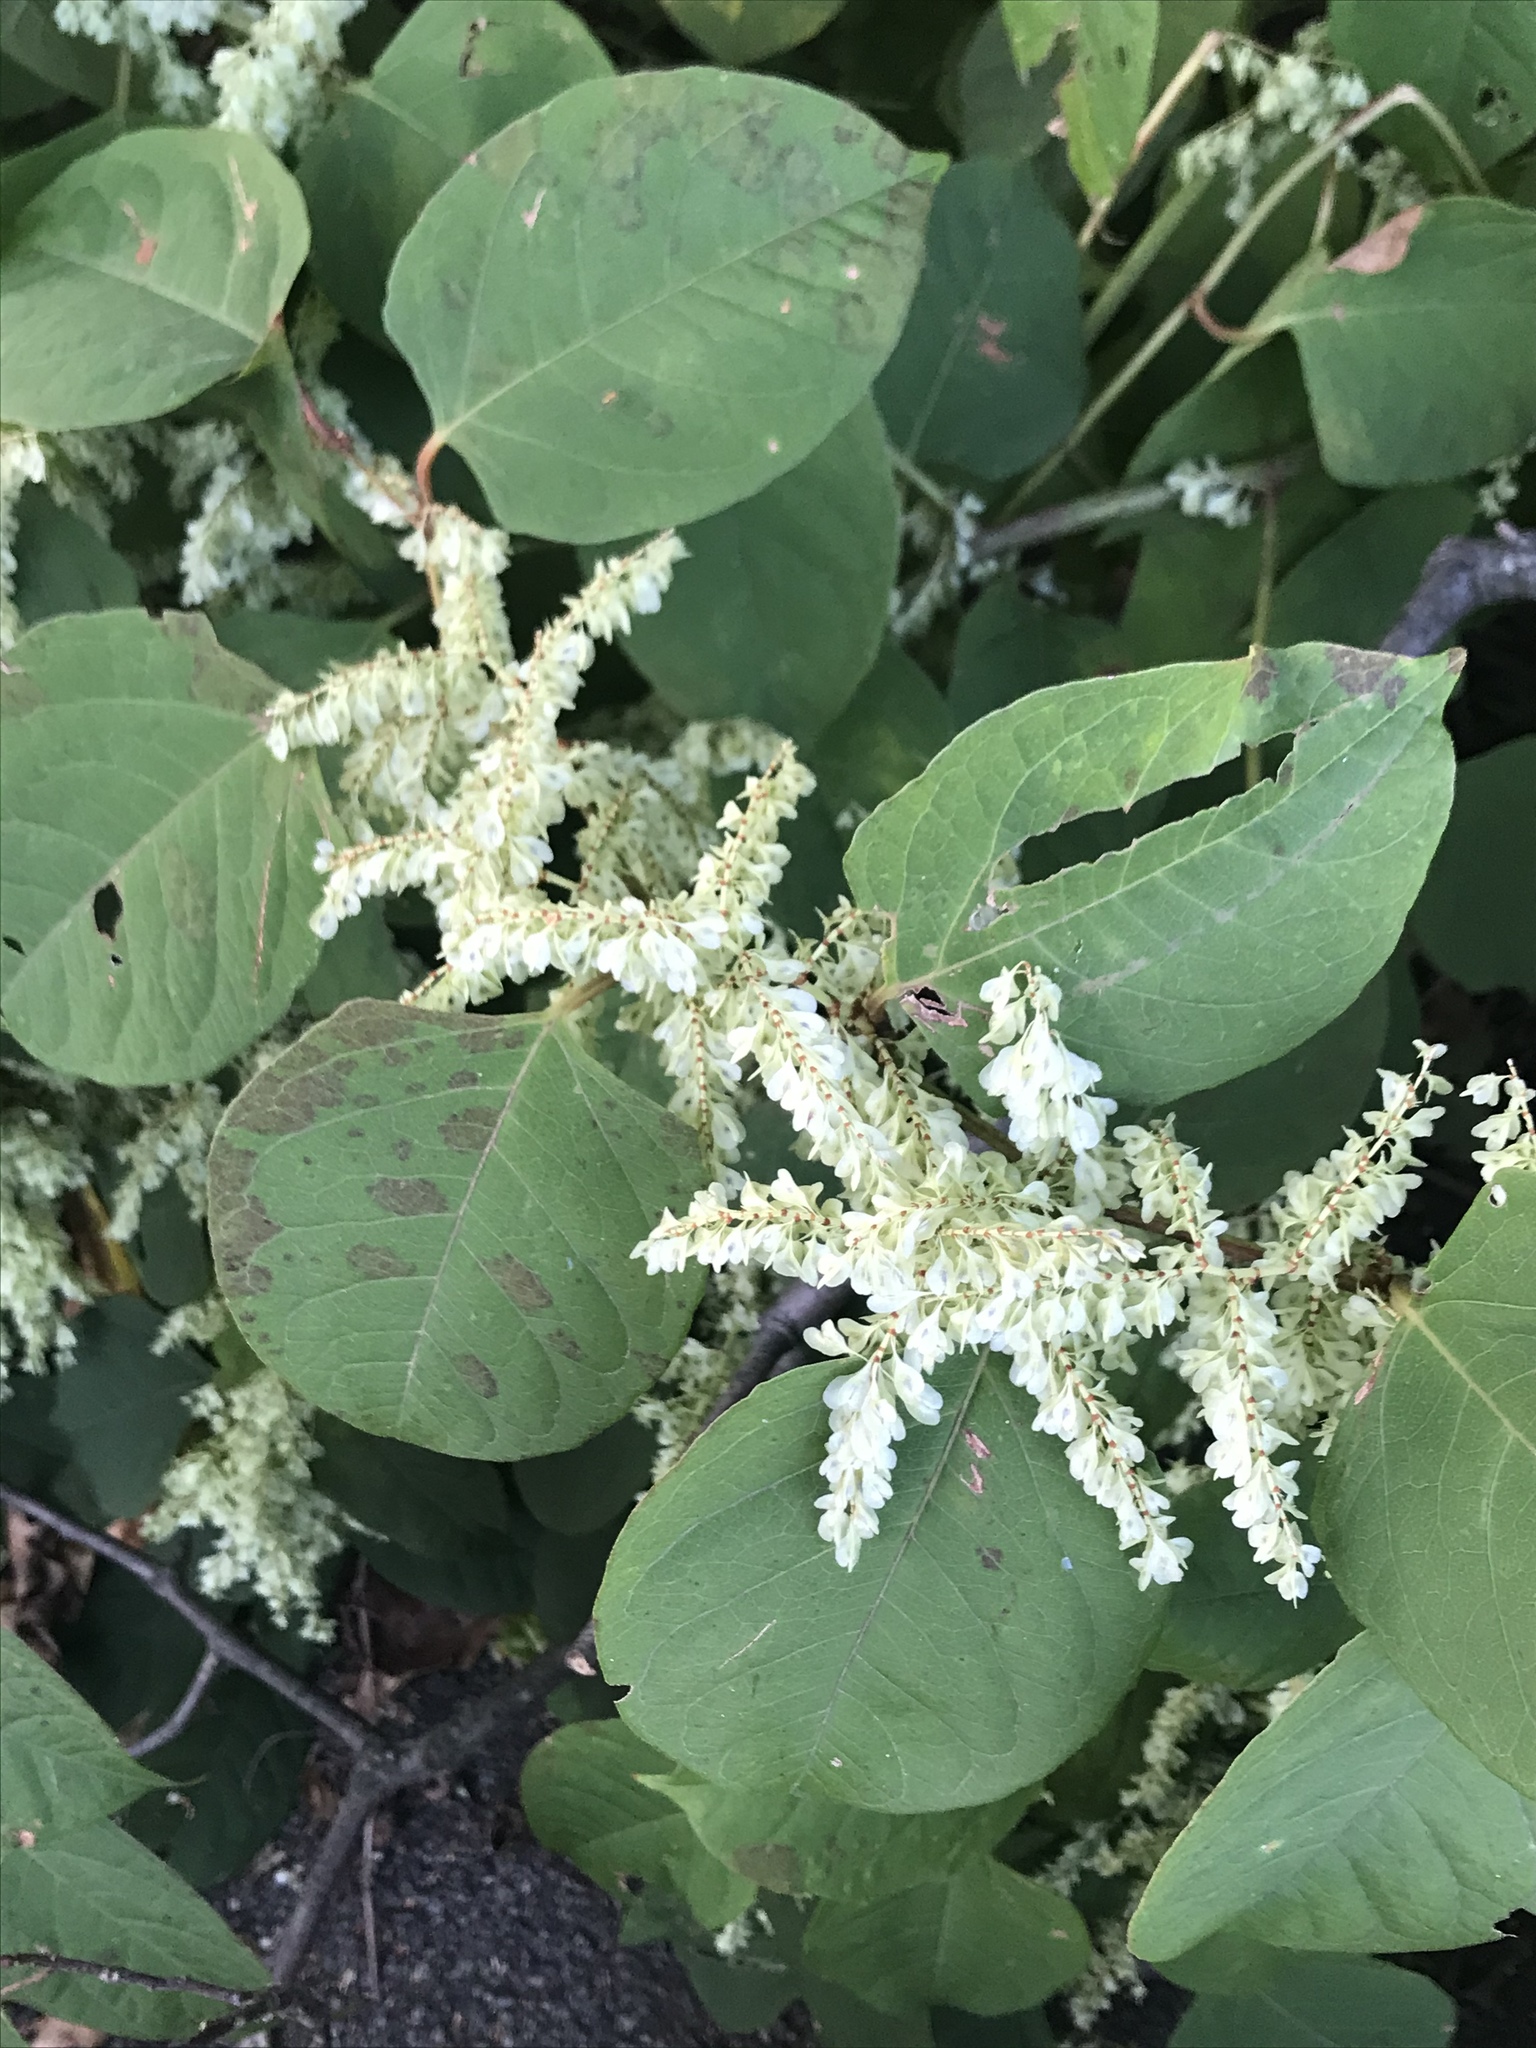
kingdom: Plantae
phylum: Tracheophyta
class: Magnoliopsida
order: Caryophyllales
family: Polygonaceae
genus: Reynoutria
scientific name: Reynoutria japonica
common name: Japanese knotweed
